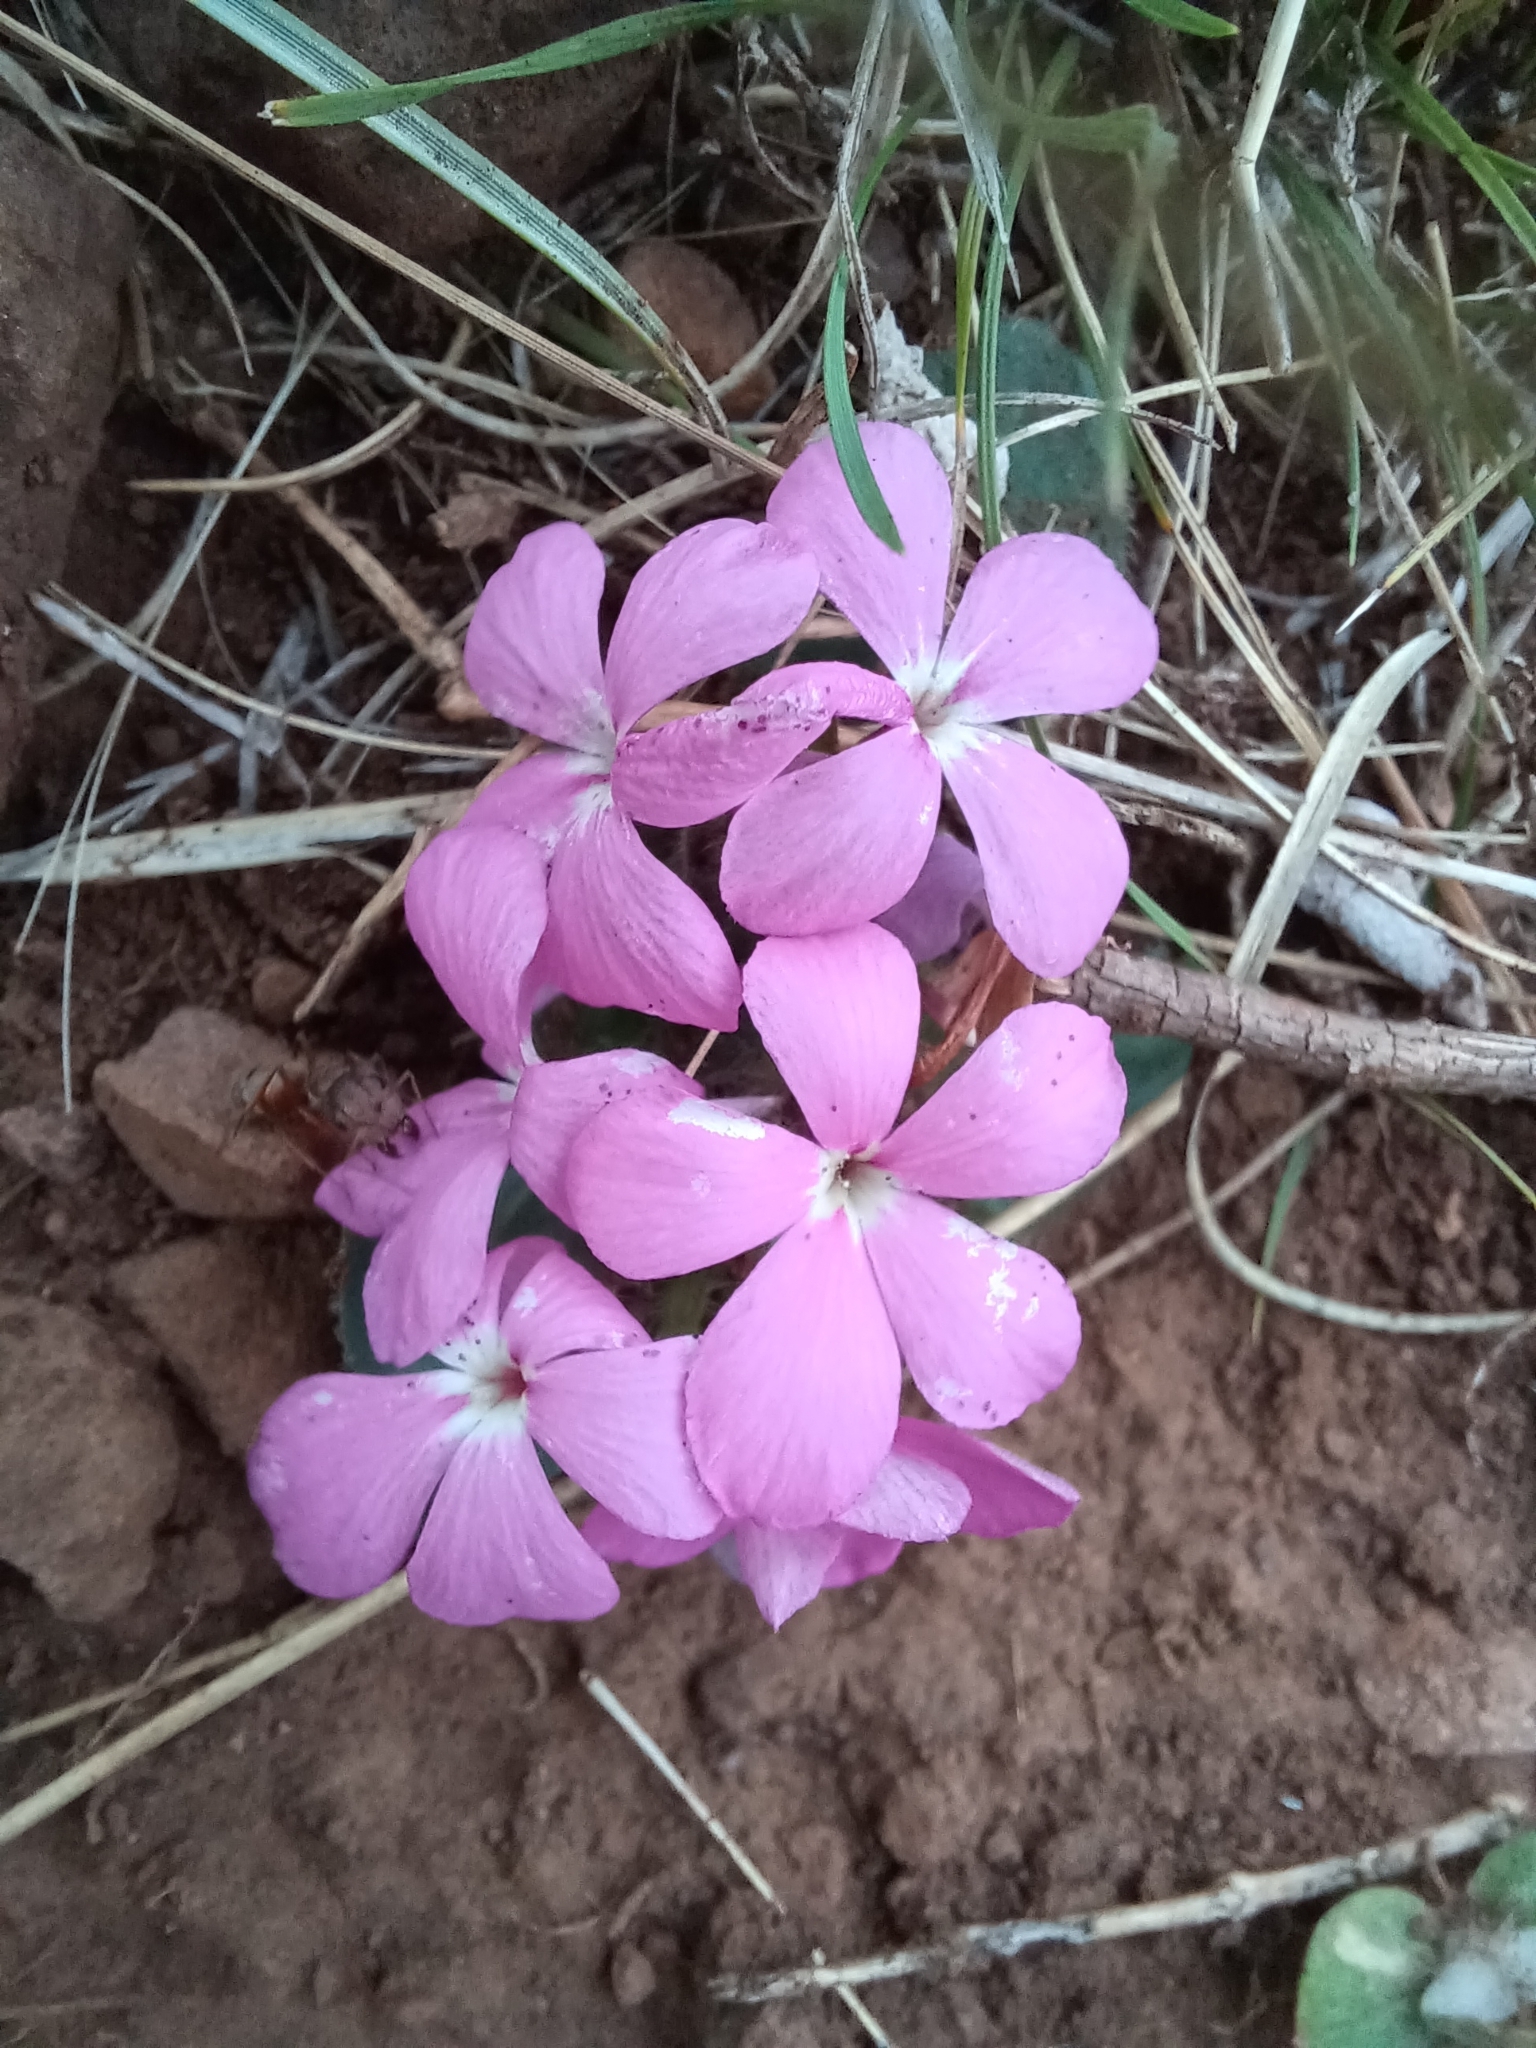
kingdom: Plantae
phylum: Tracheophyta
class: Magnoliopsida
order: Lamiales
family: Acanthaceae
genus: Stenandrium
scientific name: Stenandrium dulce
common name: Pinklet
